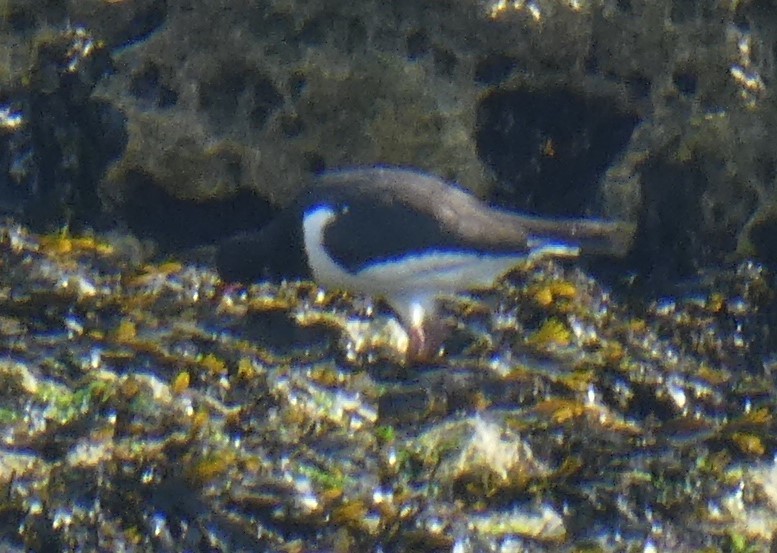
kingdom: Animalia
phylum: Chordata
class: Aves
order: Charadriiformes
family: Haematopodidae
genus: Haematopus
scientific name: Haematopus ostralegus
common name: Eurasian oystercatcher
